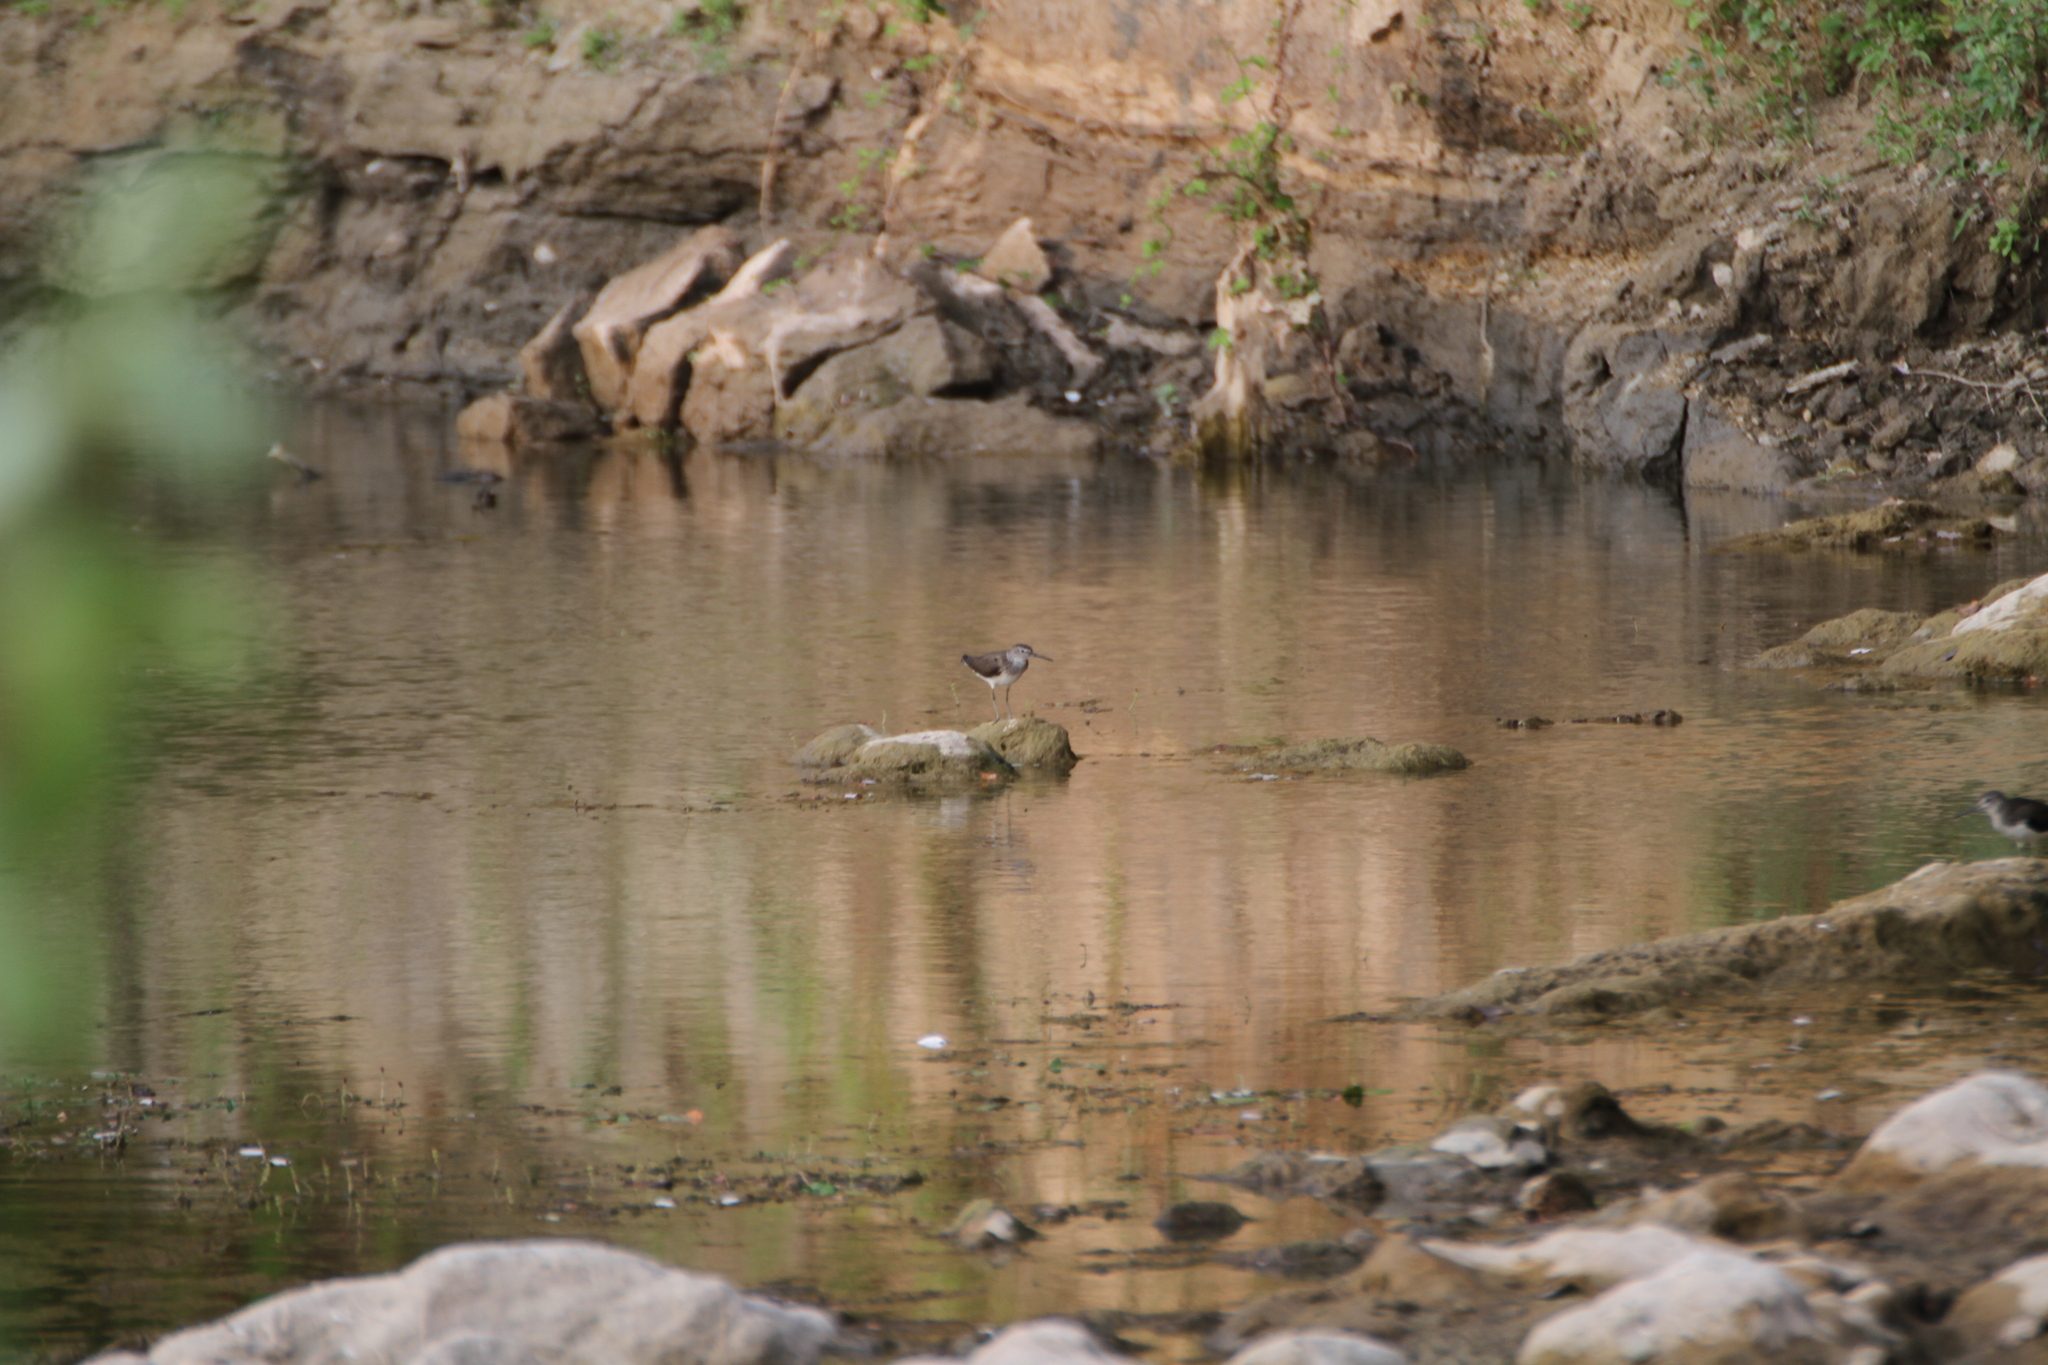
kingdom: Animalia
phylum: Chordata
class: Aves
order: Charadriiformes
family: Scolopacidae
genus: Tringa
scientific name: Tringa ochropus
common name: Green sandpiper
